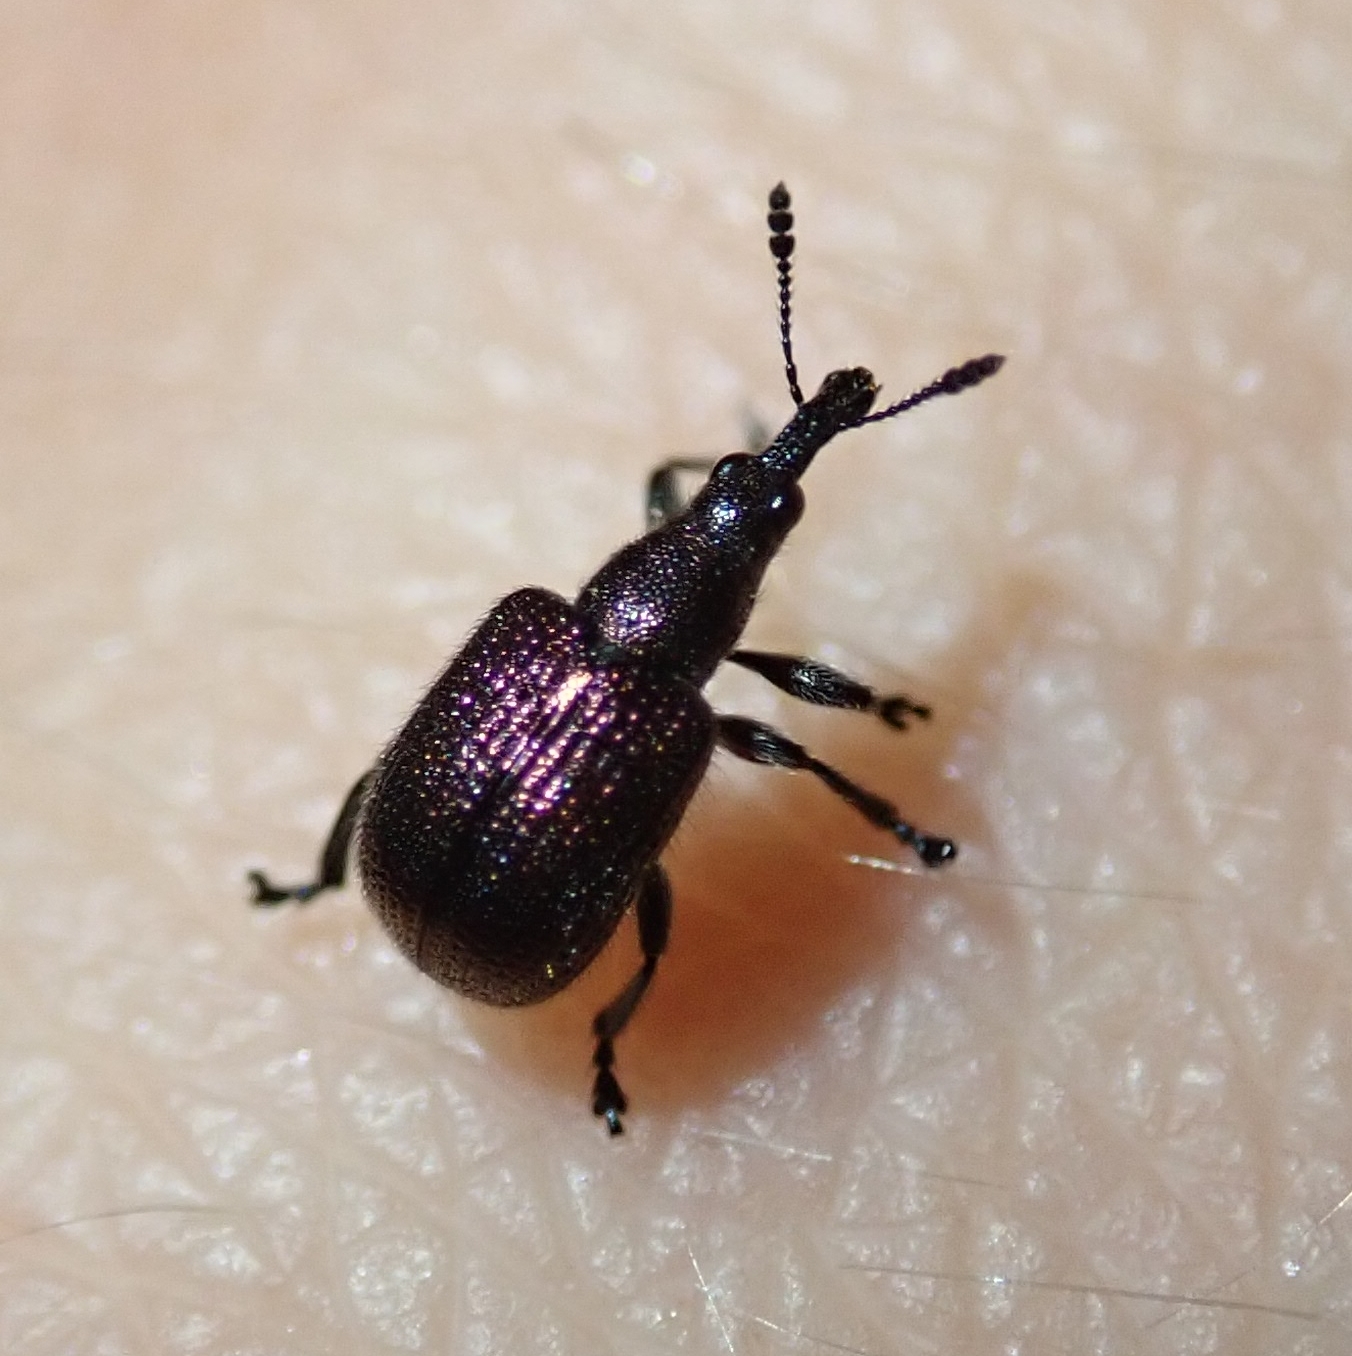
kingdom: Animalia
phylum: Arthropoda
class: Insecta
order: Coleoptera
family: Attelabidae
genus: Involvulus
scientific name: Involvulus cupreus
